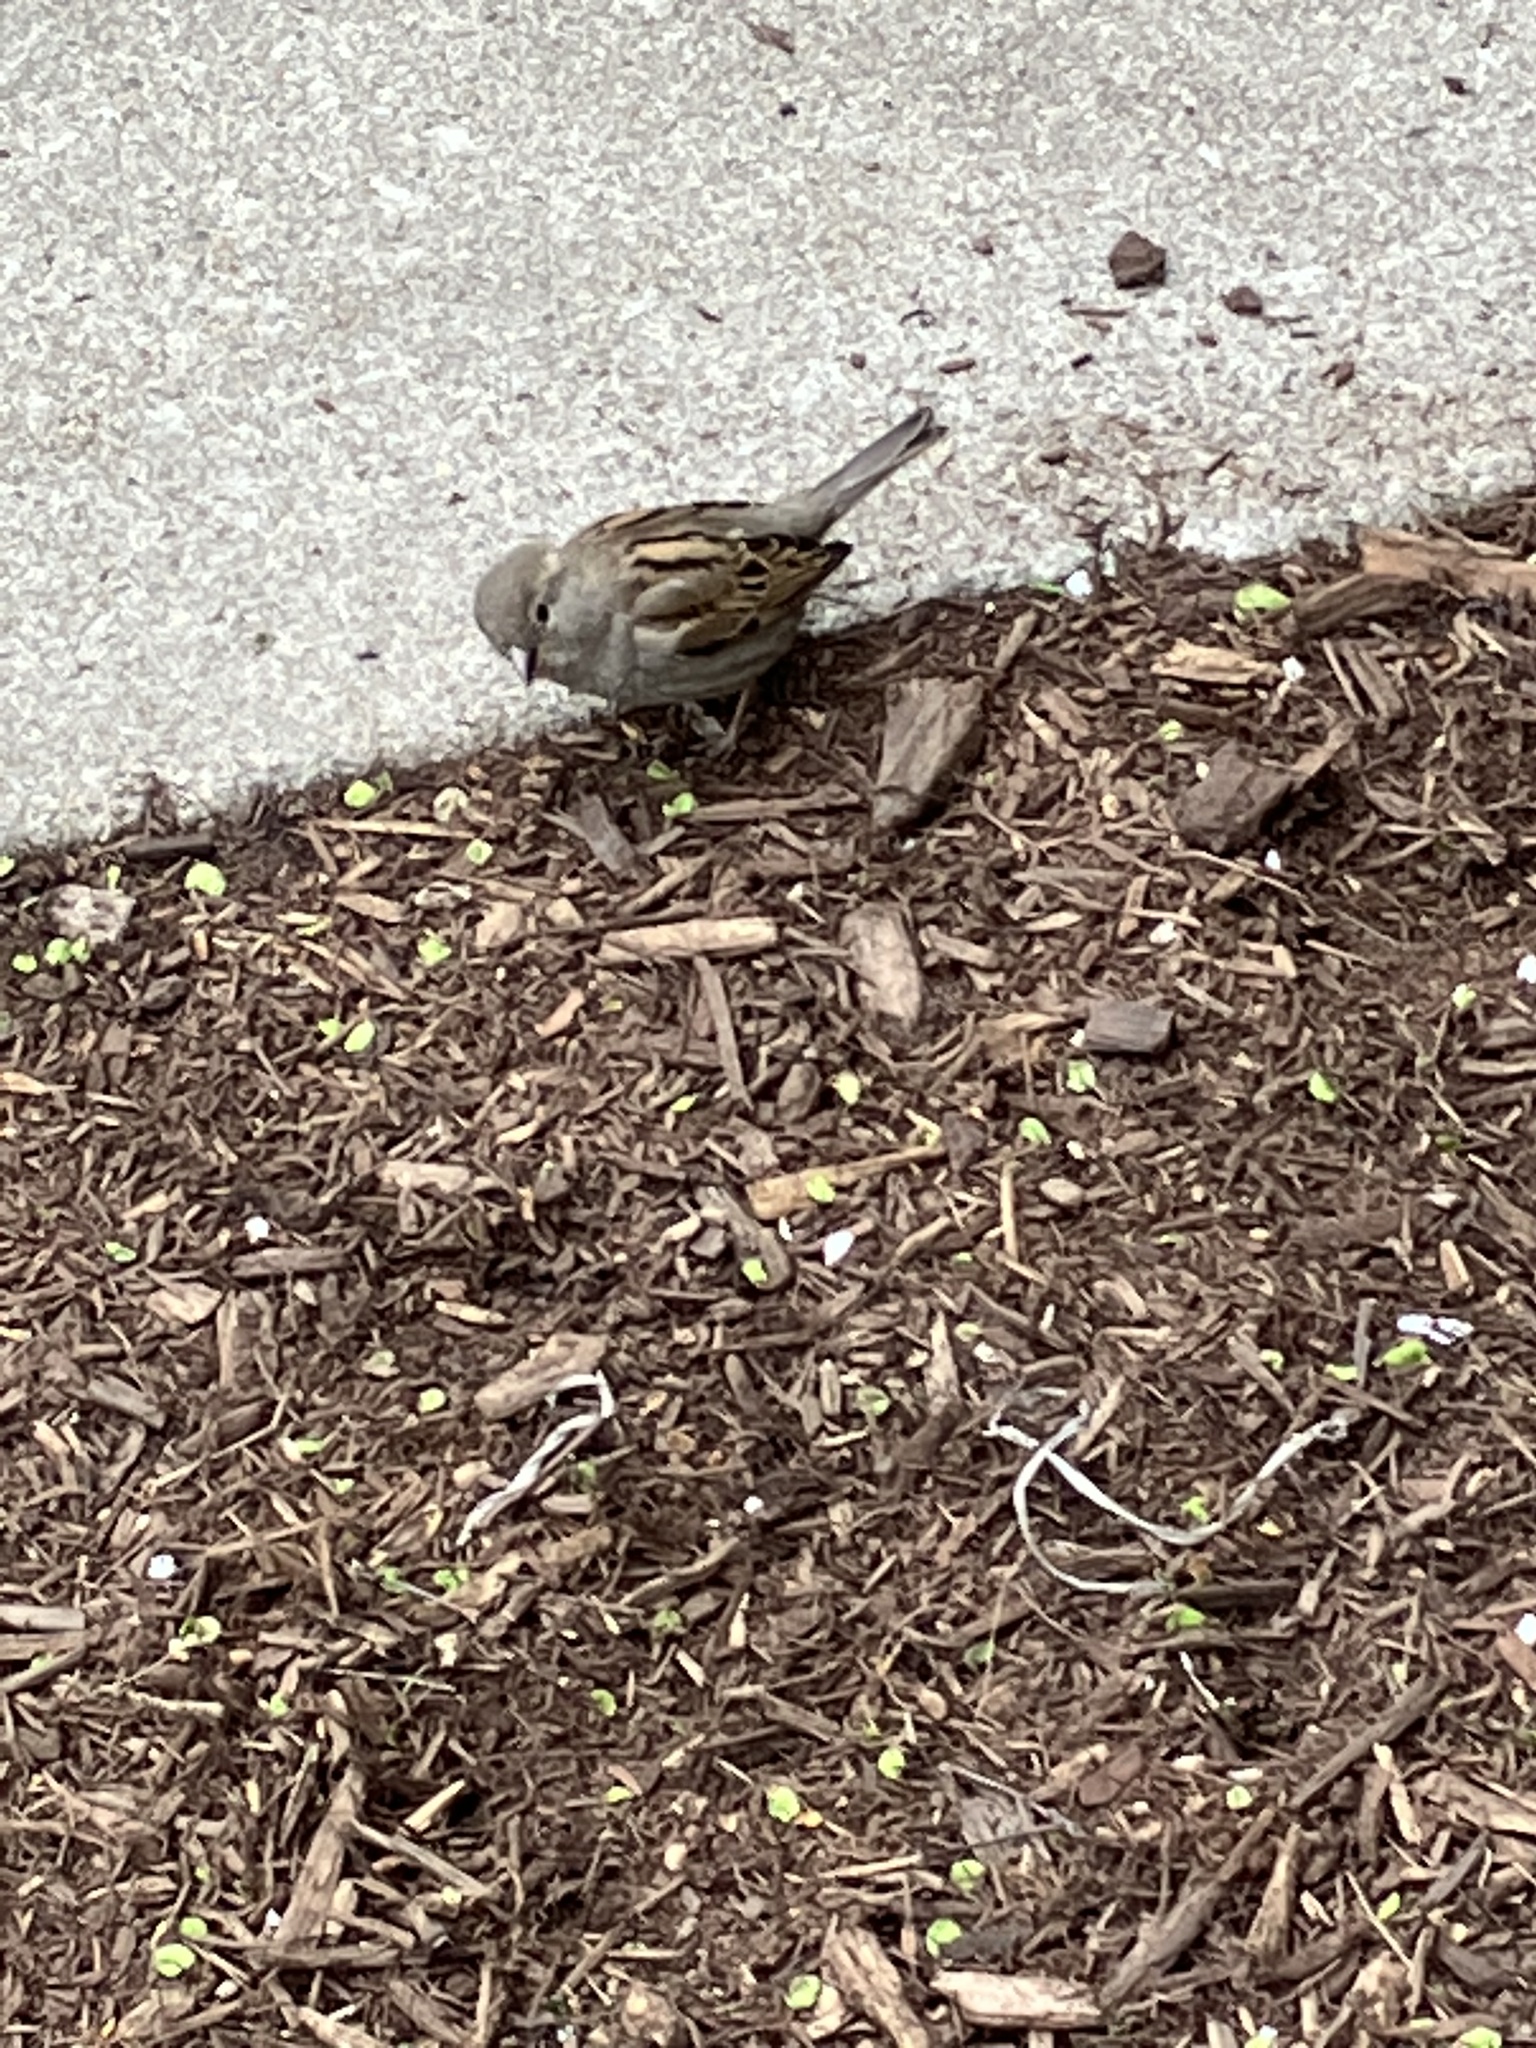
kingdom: Animalia
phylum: Chordata
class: Aves
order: Passeriformes
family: Passeridae
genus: Passer
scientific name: Passer domesticus
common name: House sparrow
